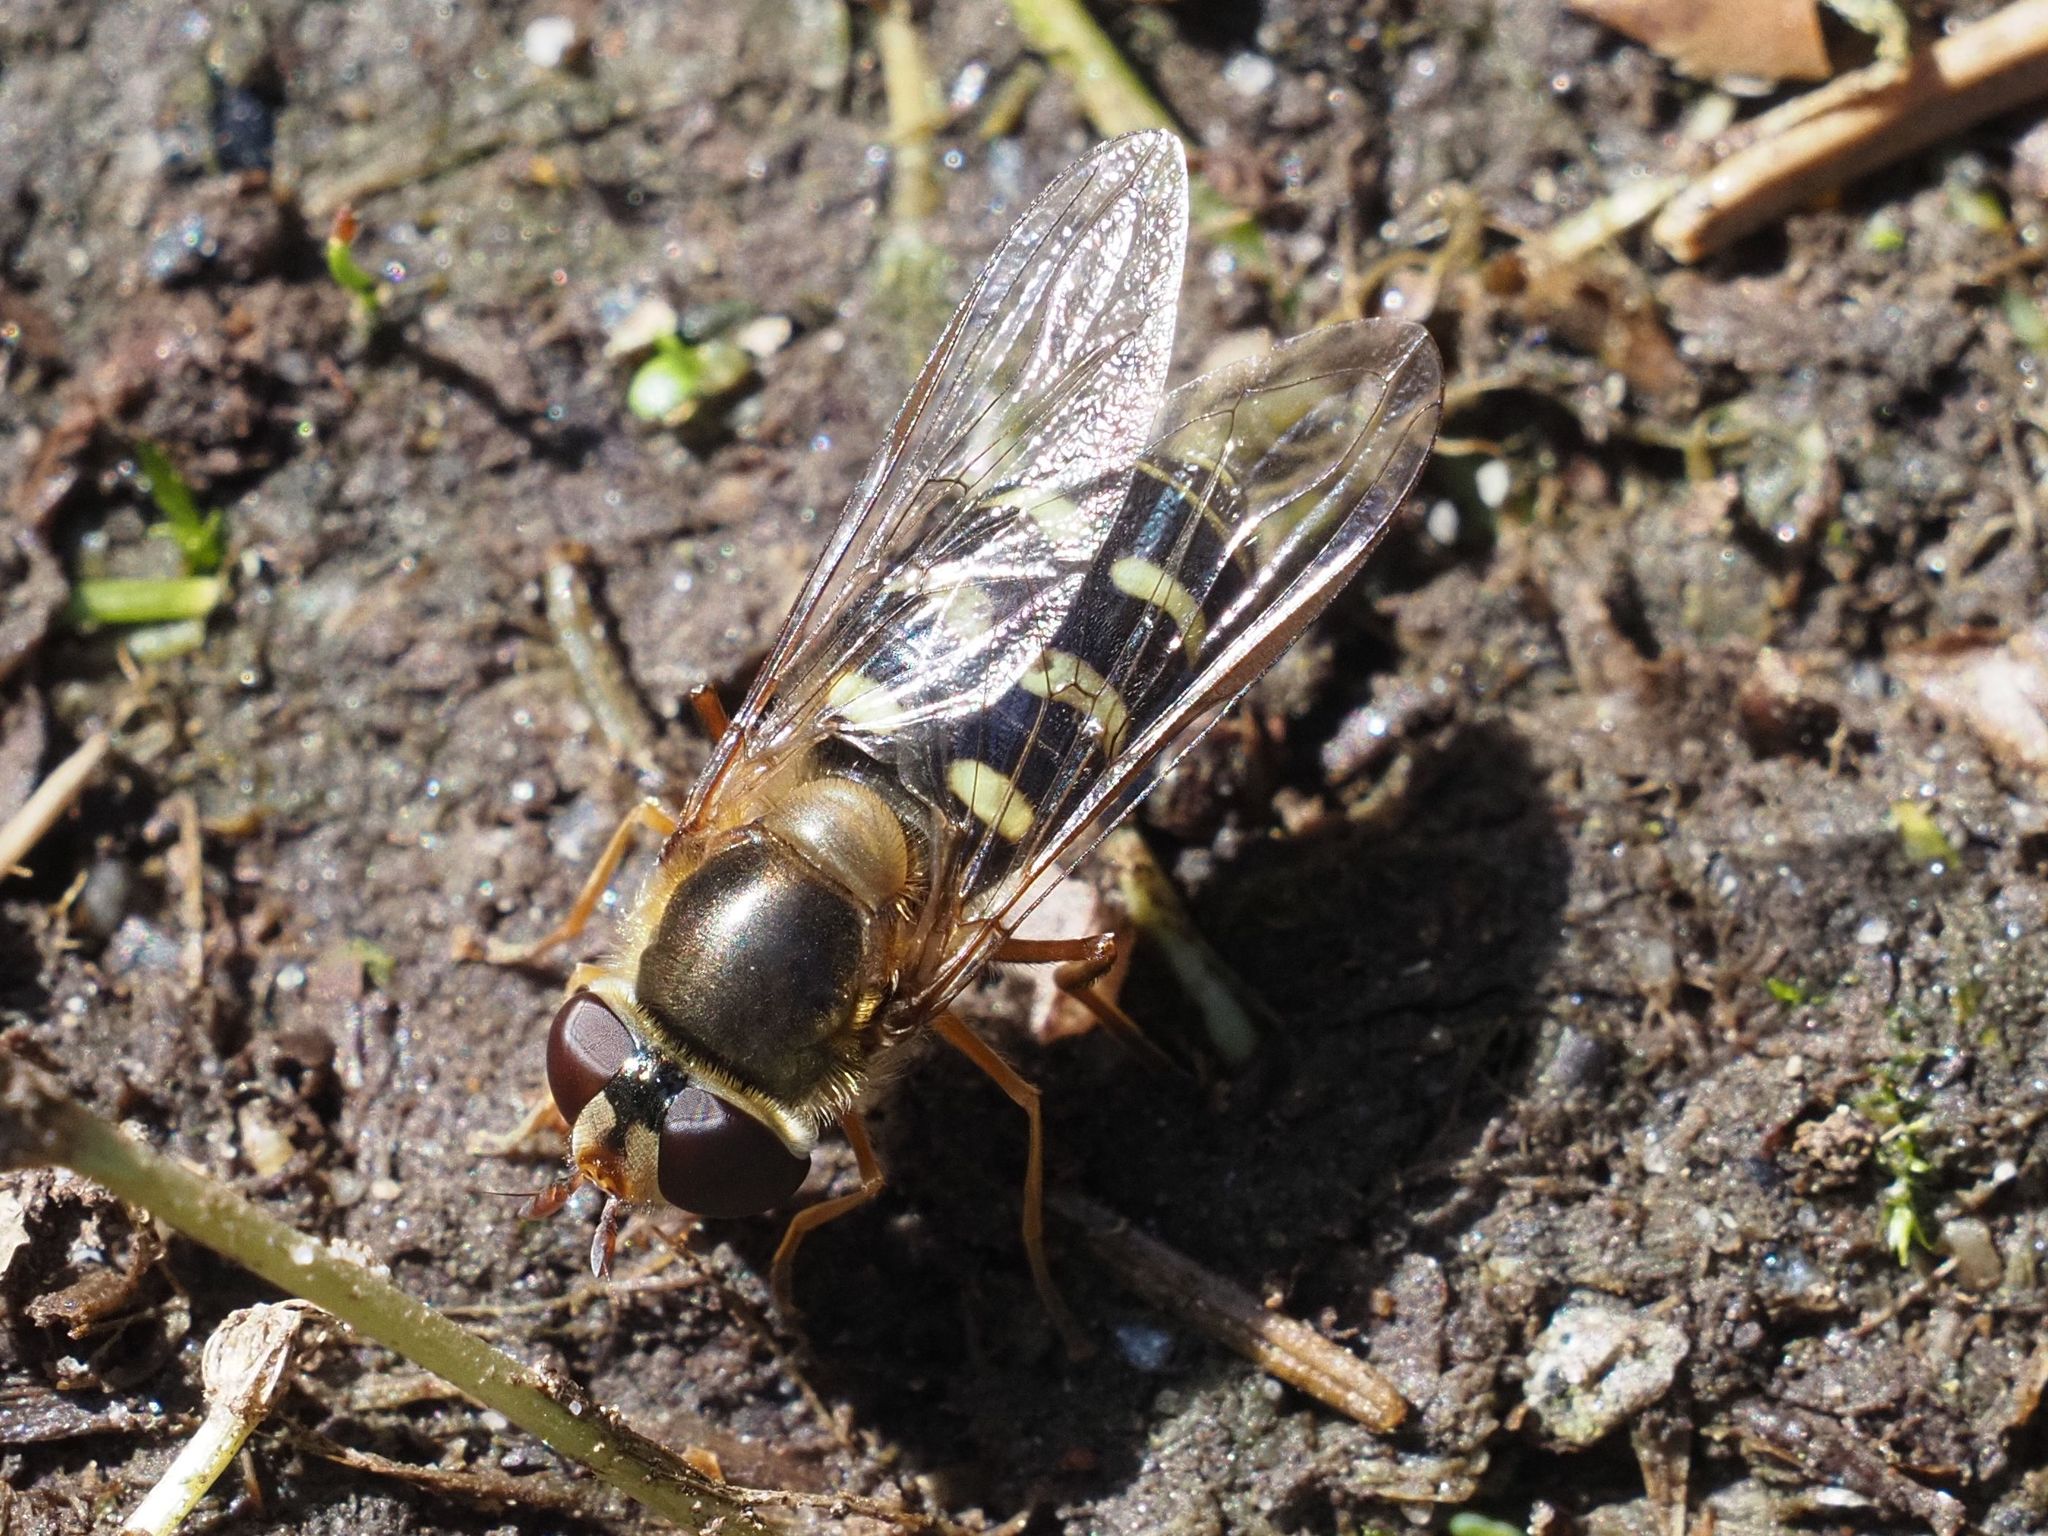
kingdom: Animalia
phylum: Arthropoda
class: Insecta
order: Diptera
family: Syrphidae
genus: Lapposyrphus
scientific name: Lapposyrphus lapponicus
